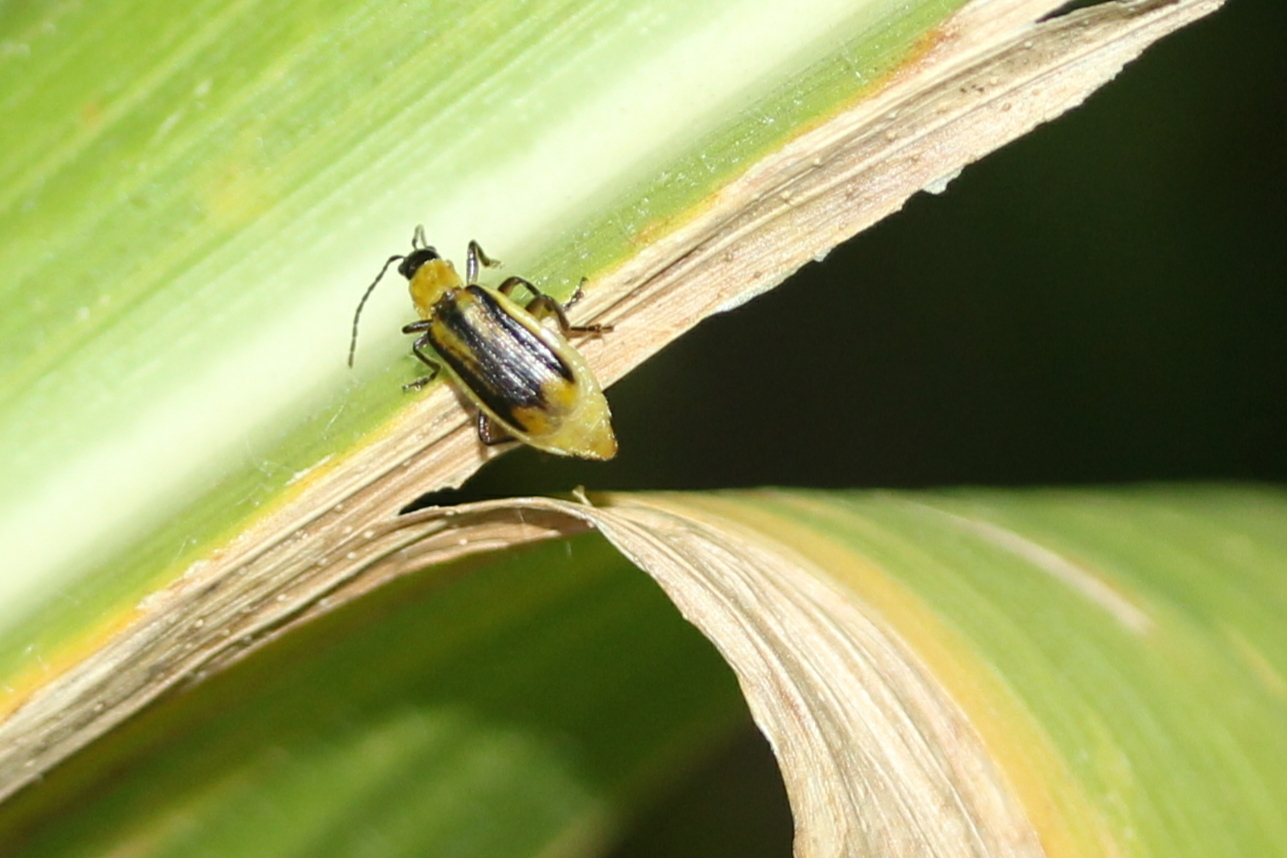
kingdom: Animalia
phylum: Arthropoda
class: Insecta
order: Coleoptera
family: Chrysomelidae
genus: Diabrotica
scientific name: Diabrotica virgifera
